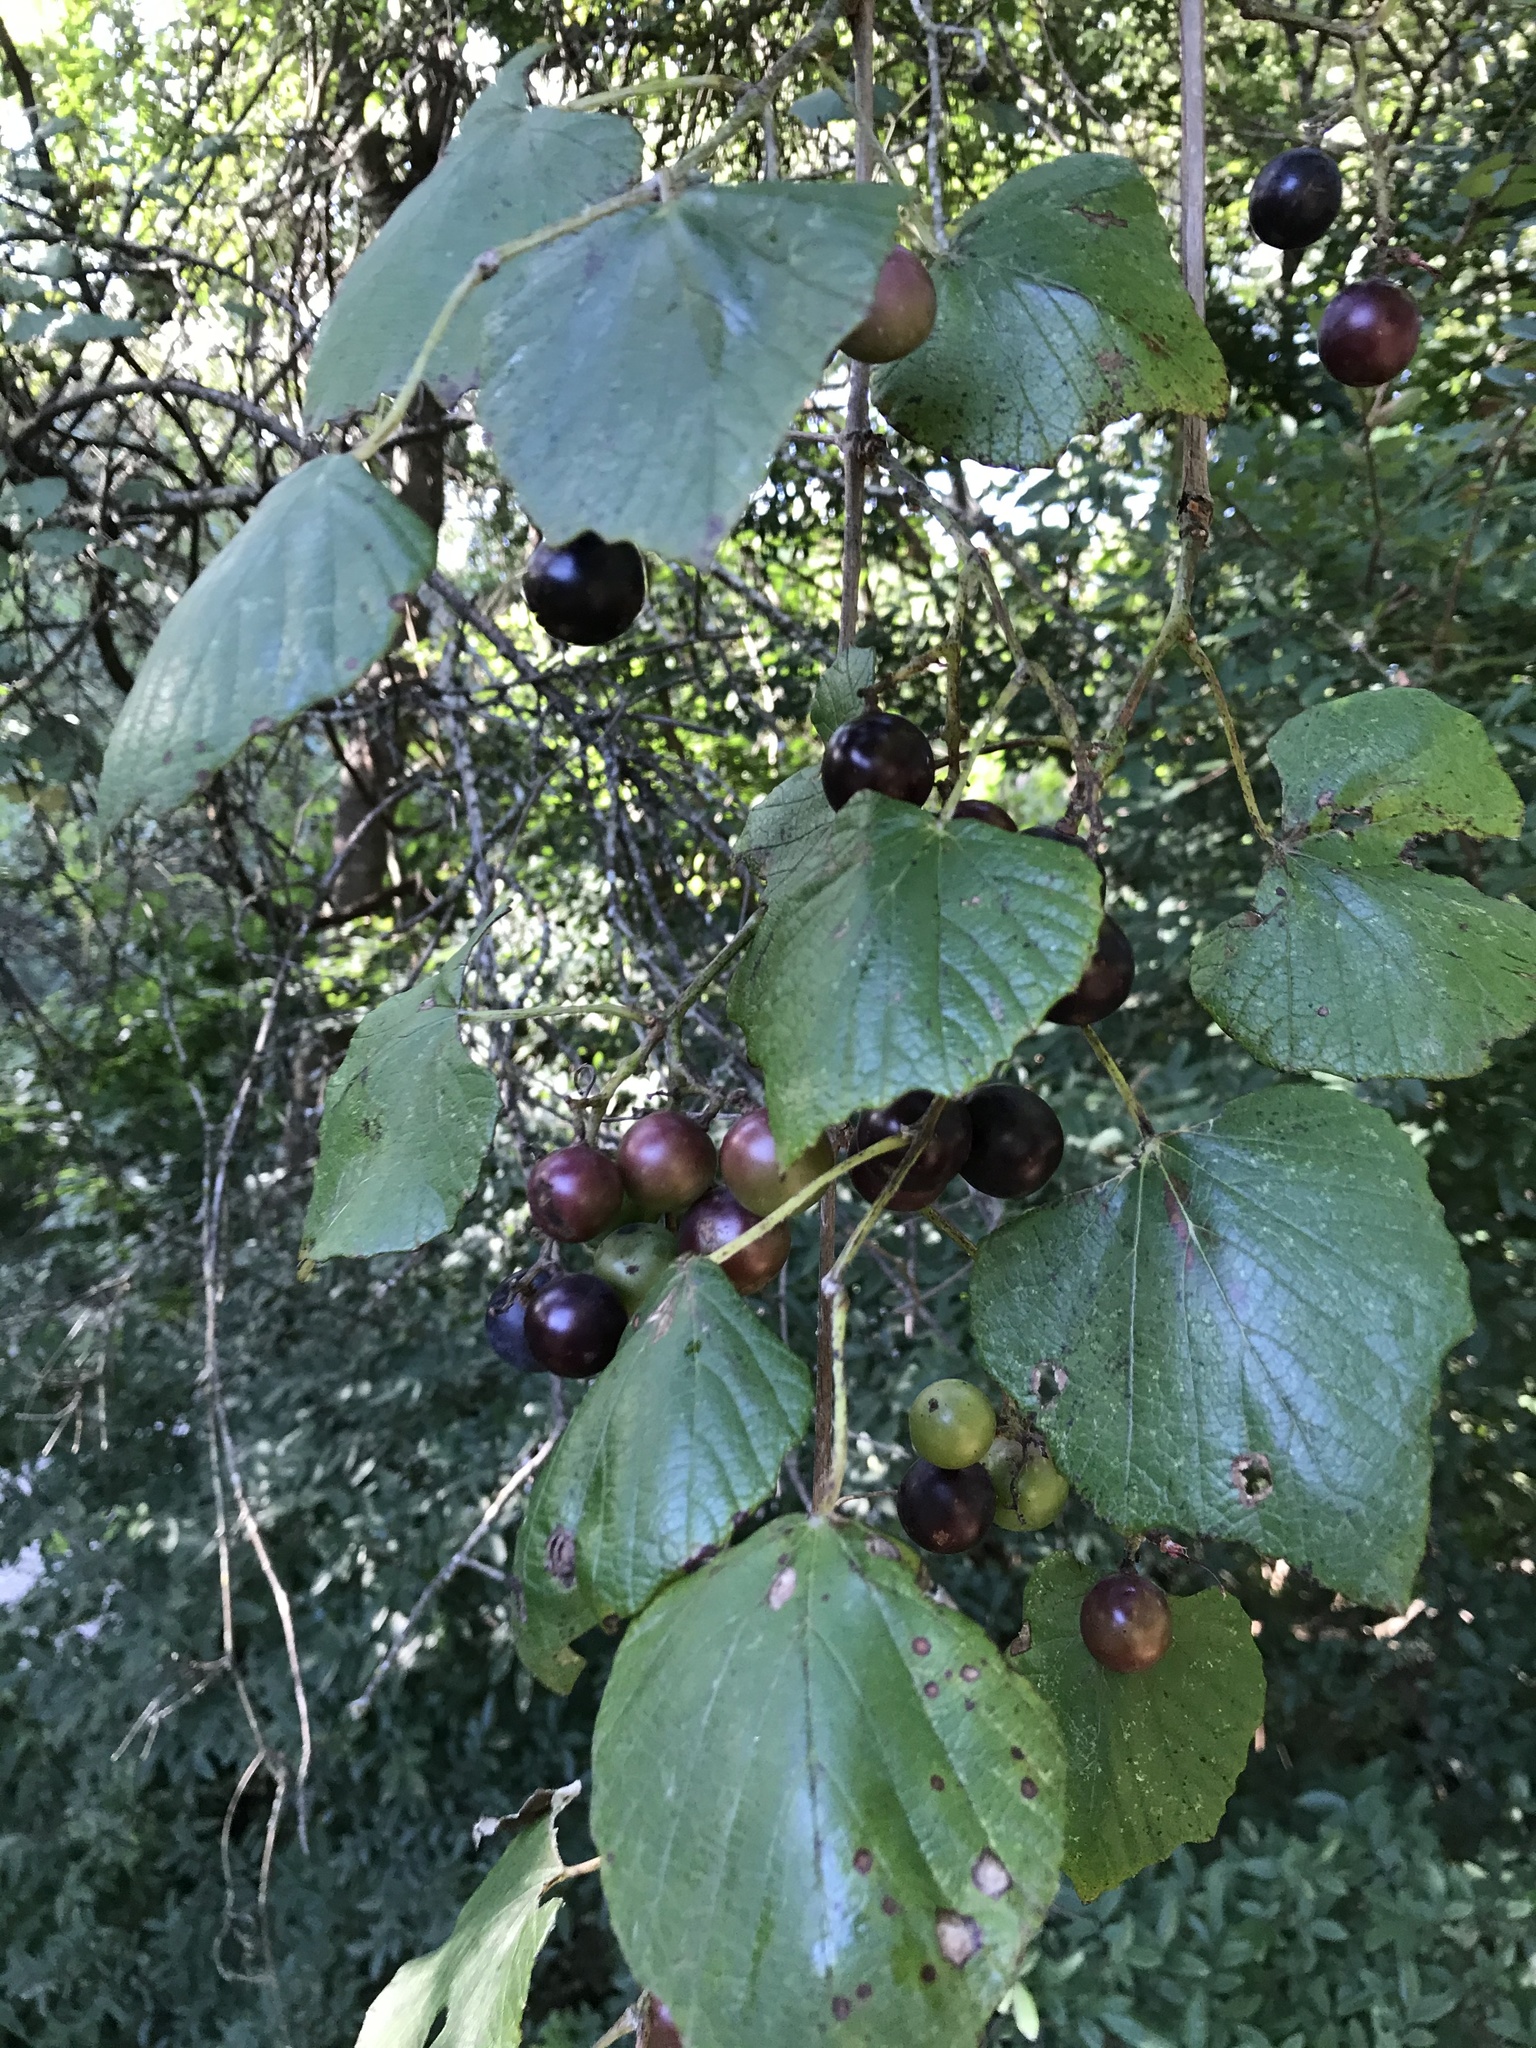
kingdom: Plantae
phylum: Tracheophyta
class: Magnoliopsida
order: Vitales
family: Vitaceae
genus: Vitis
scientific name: Vitis mustangensis
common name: Mustang grape
